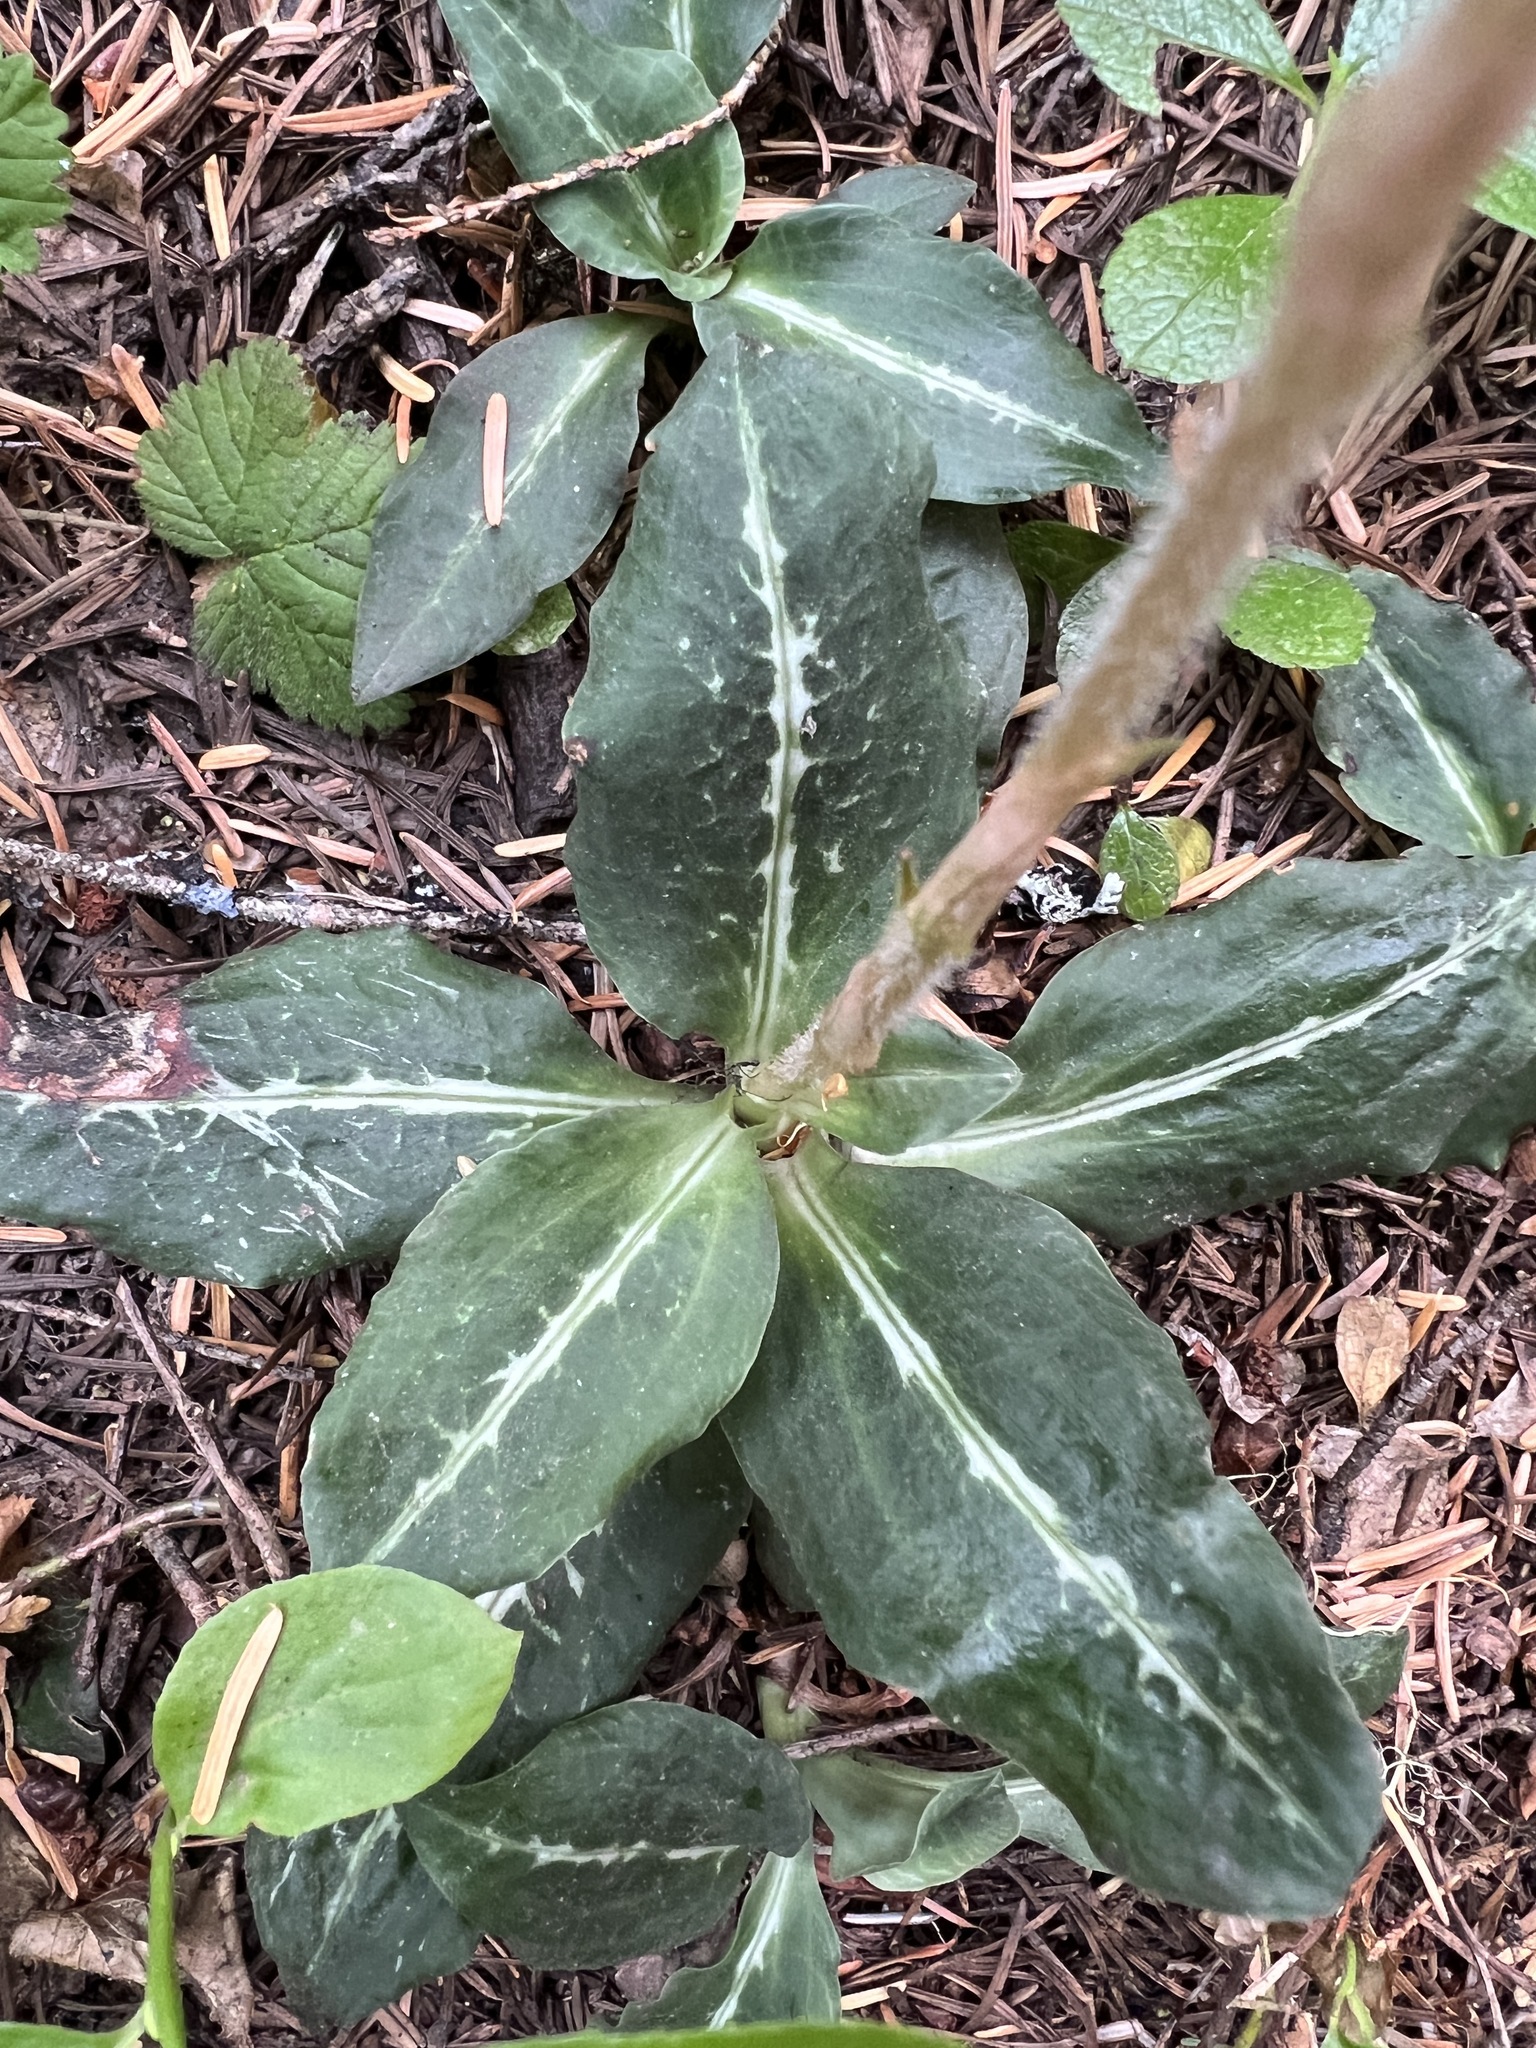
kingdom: Plantae
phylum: Tracheophyta
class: Liliopsida
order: Asparagales
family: Orchidaceae
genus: Goodyera
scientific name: Goodyera oblongifolia
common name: Giant rattlesnake-plantain
